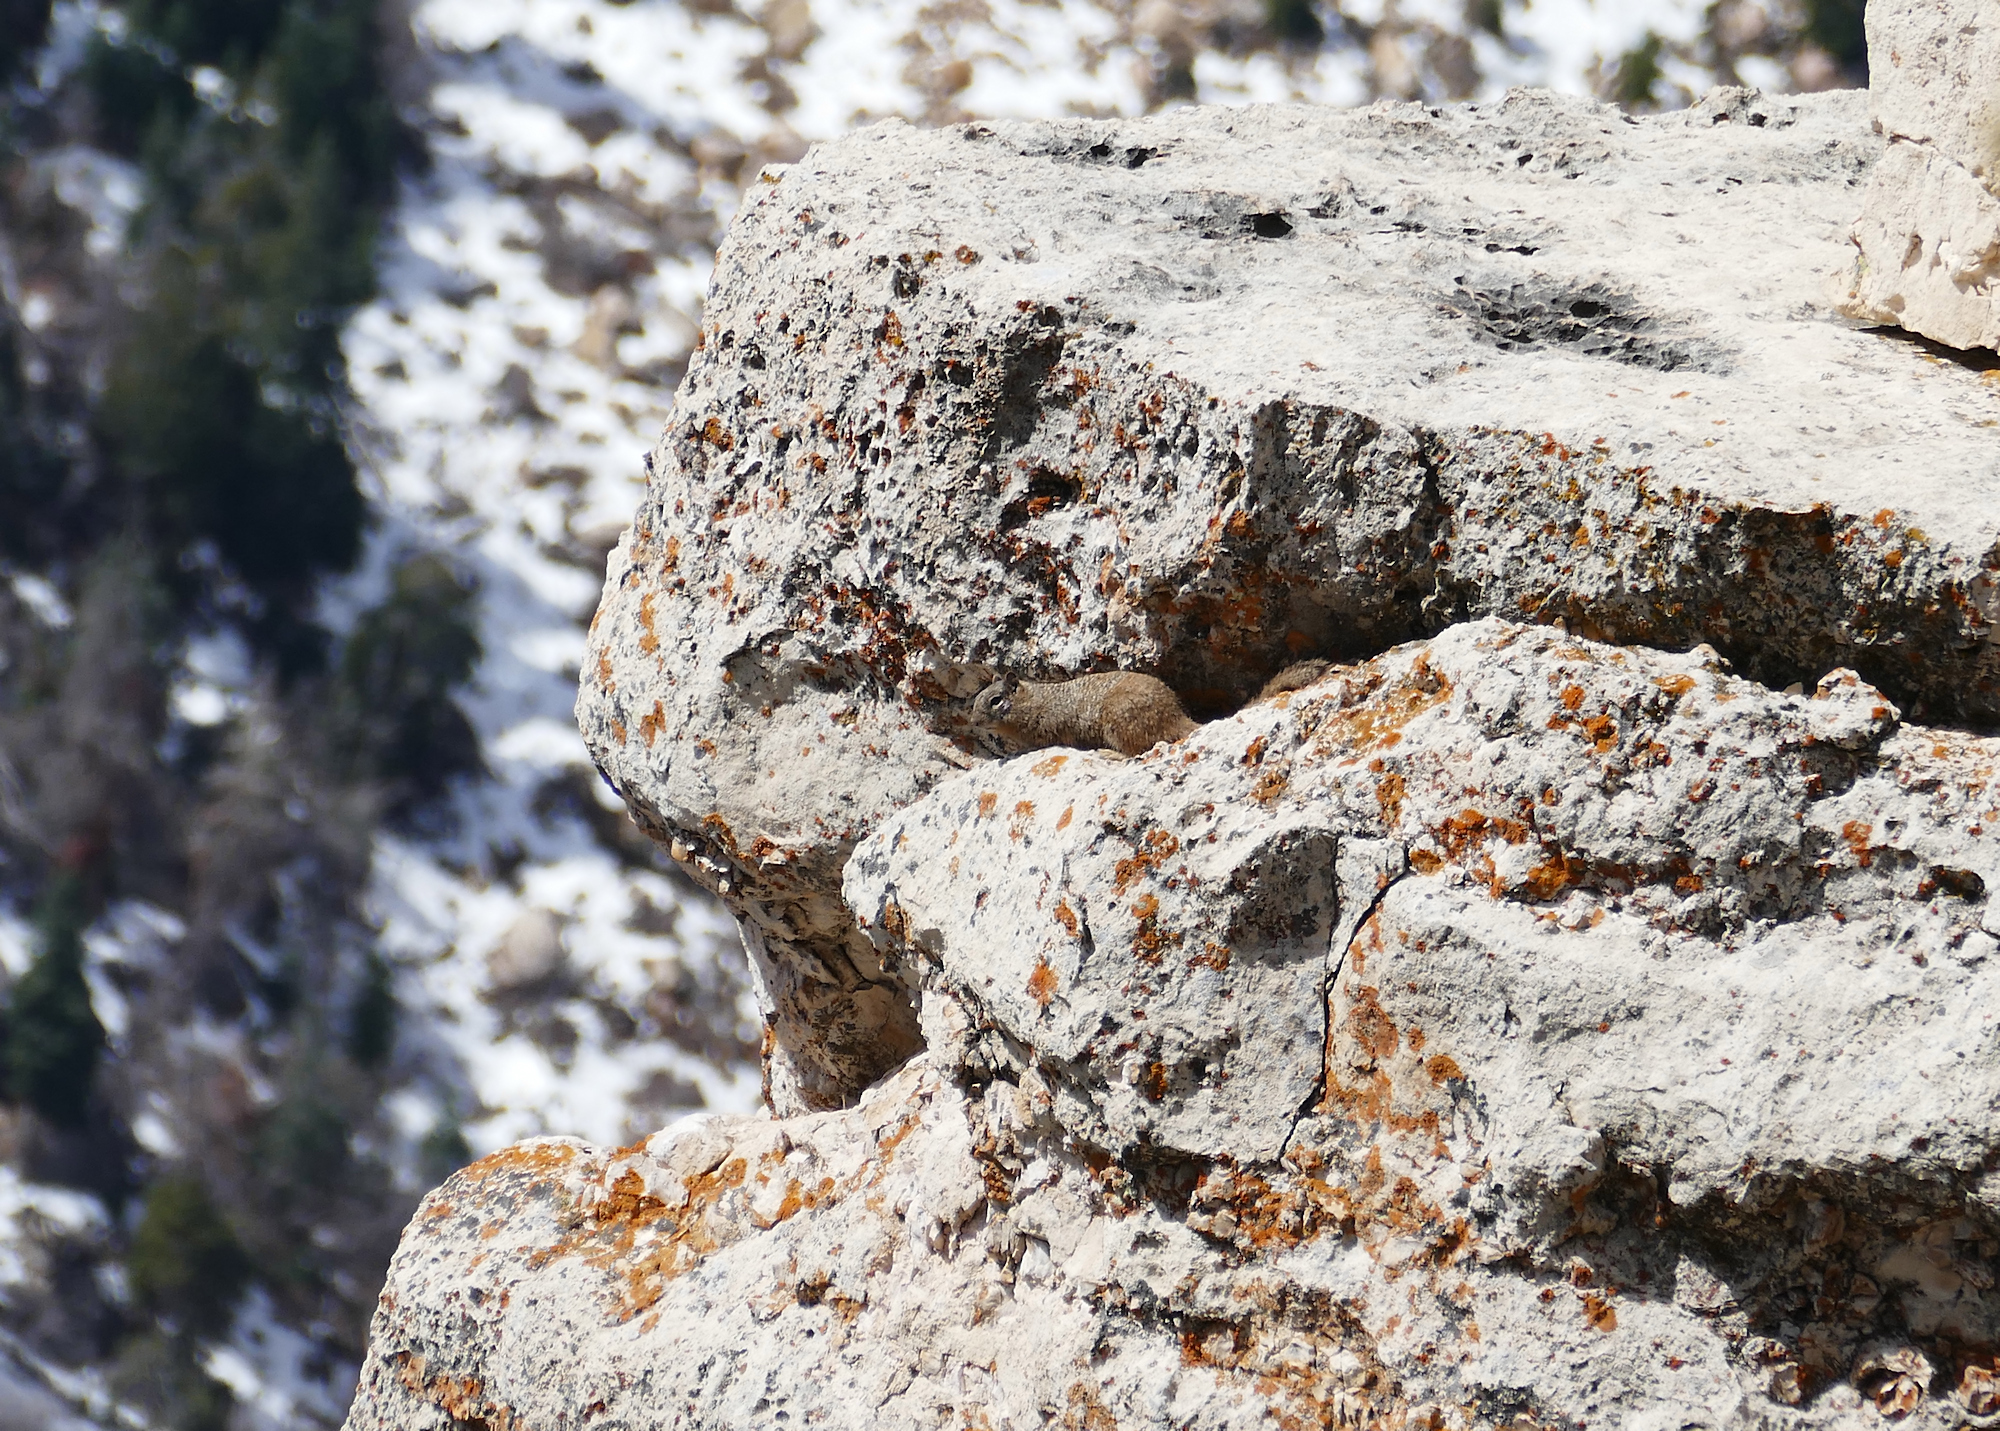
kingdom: Animalia
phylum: Chordata
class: Mammalia
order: Rodentia
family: Sciuridae
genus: Otospermophilus
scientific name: Otospermophilus variegatus
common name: Rock squirrel
